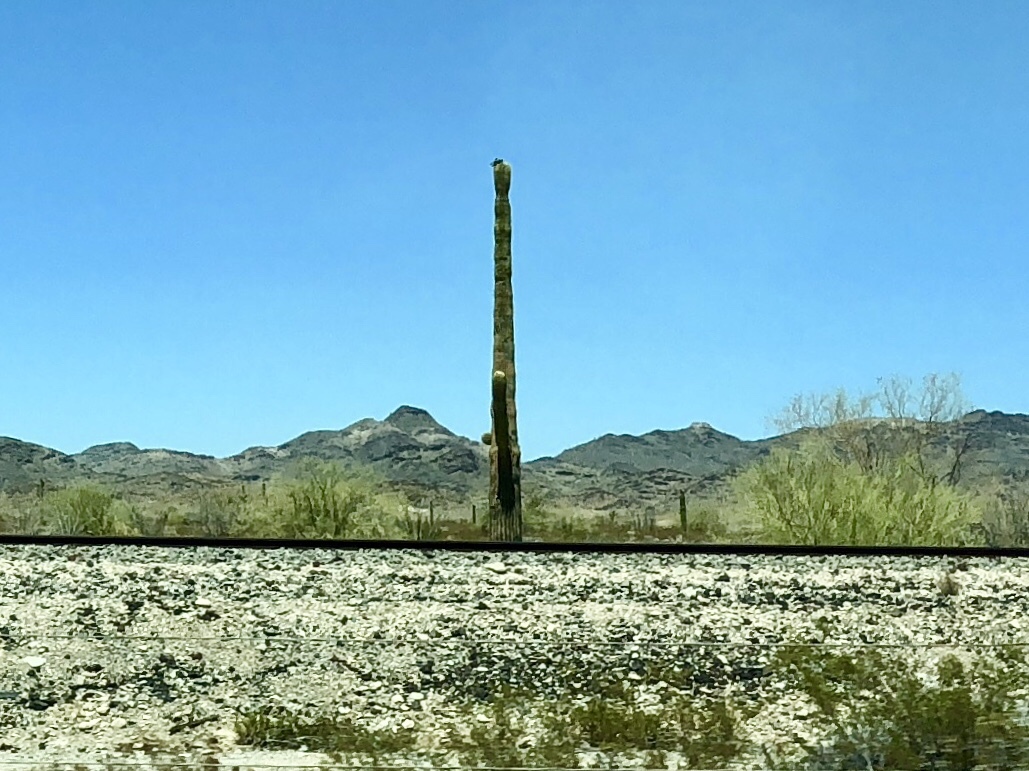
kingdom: Plantae
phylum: Tracheophyta
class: Magnoliopsida
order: Caryophyllales
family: Cactaceae
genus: Carnegiea
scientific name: Carnegiea gigantea
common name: Saguaro
